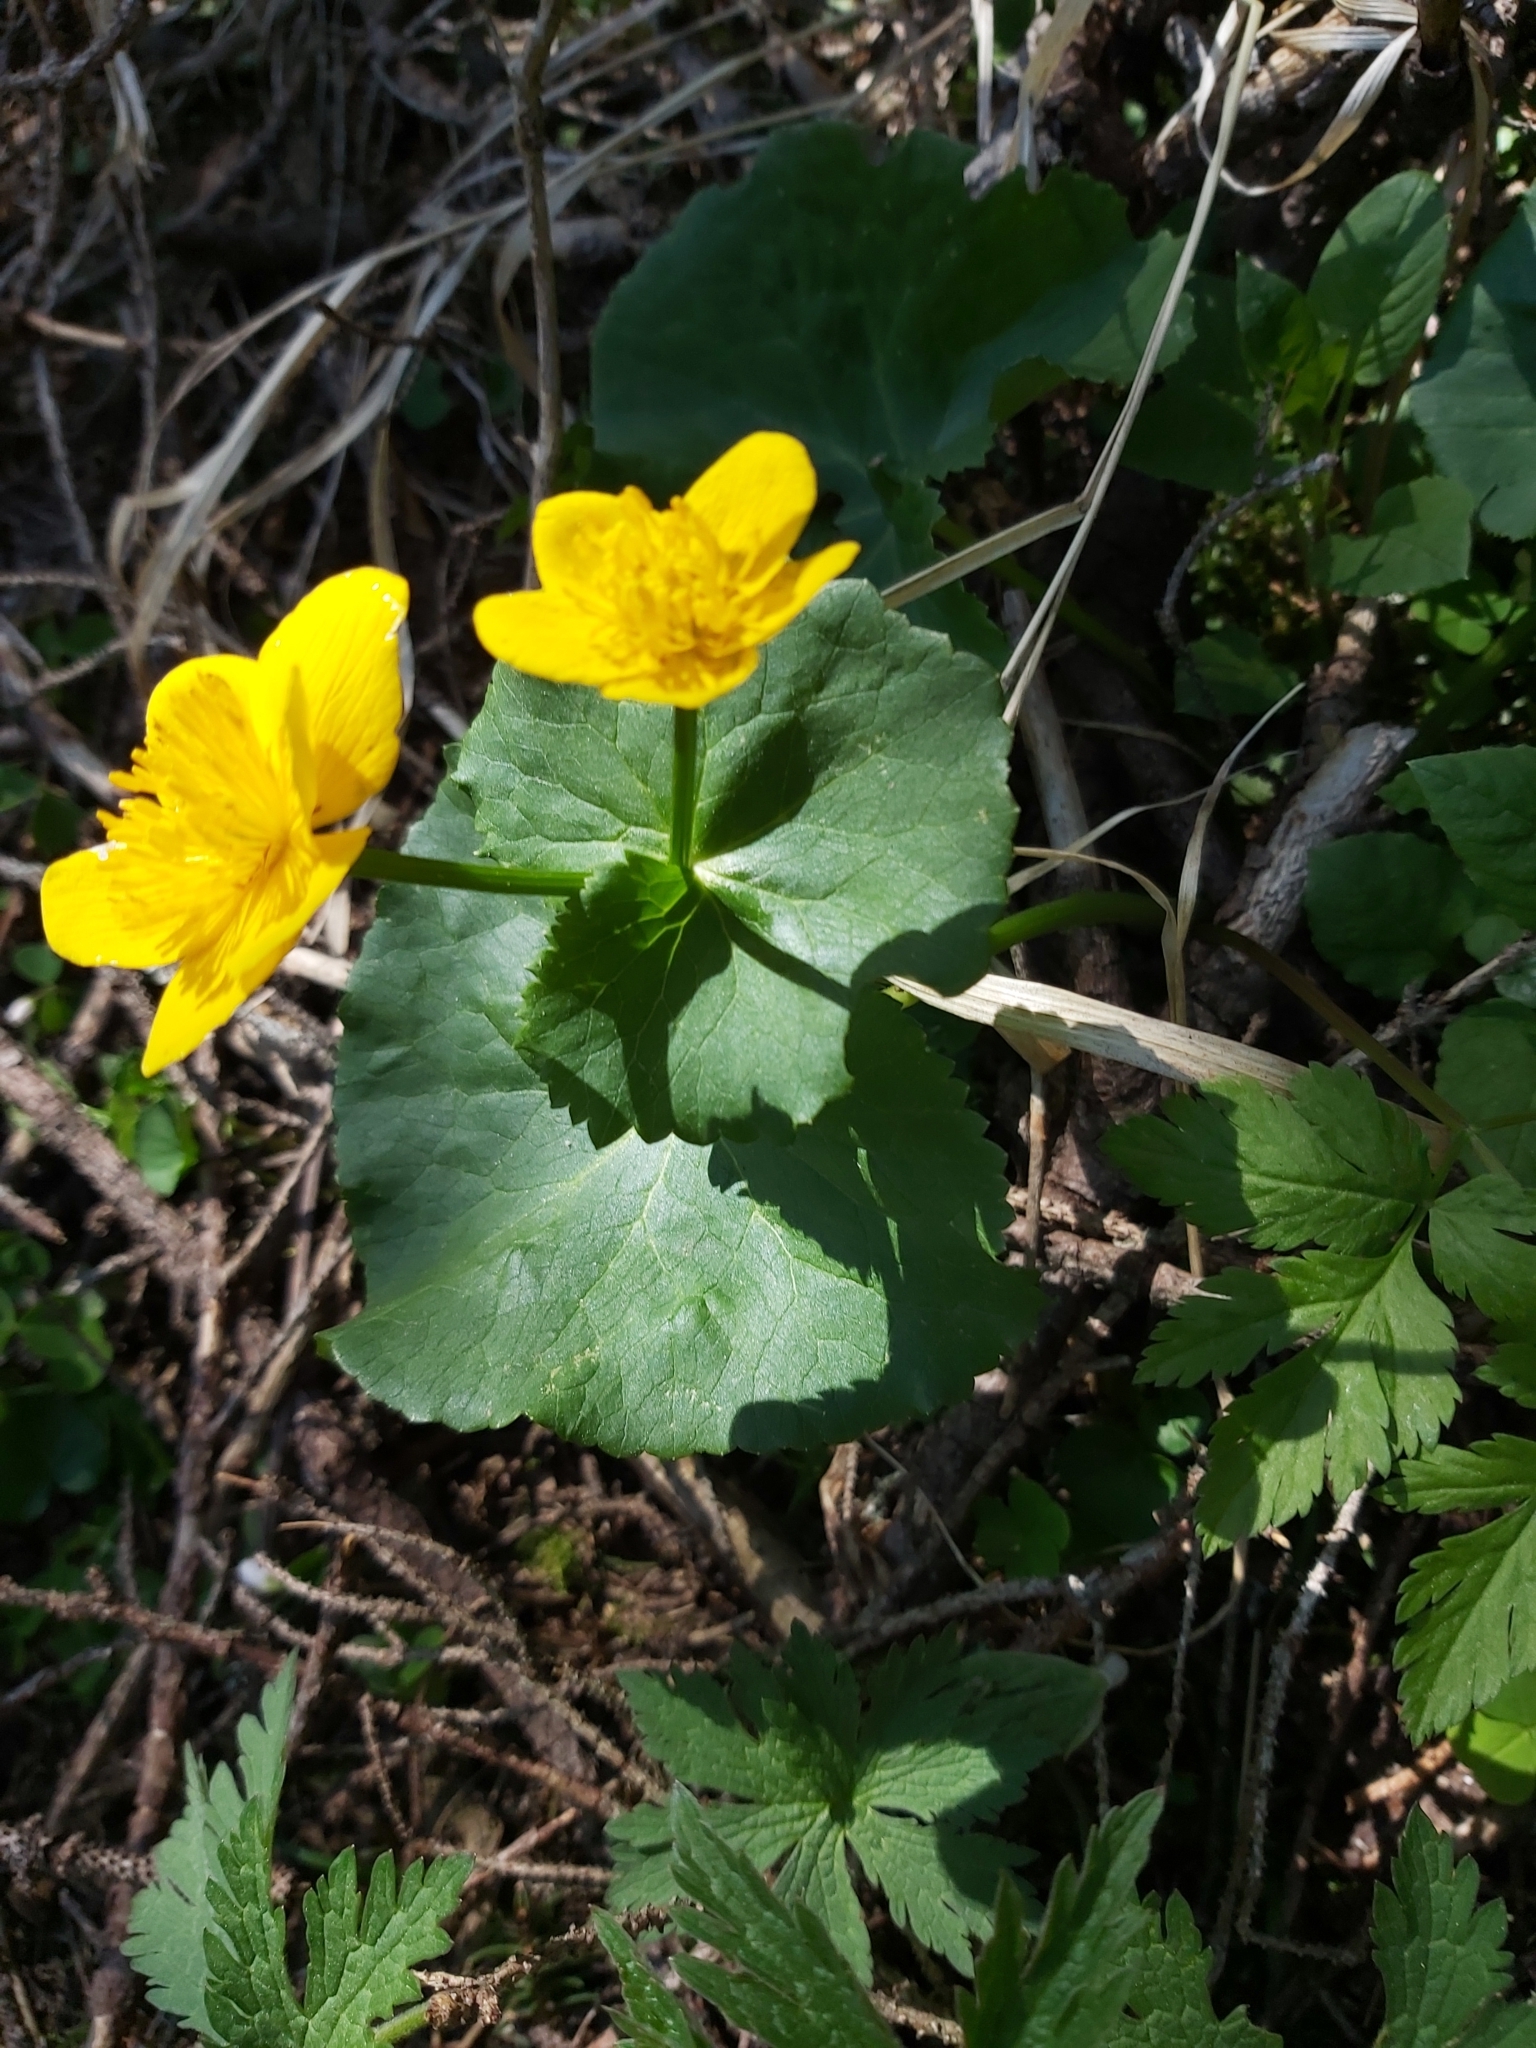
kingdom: Plantae
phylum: Tracheophyta
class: Magnoliopsida
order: Ranunculales
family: Ranunculaceae
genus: Caltha
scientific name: Caltha palustris
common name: Marsh marigold
